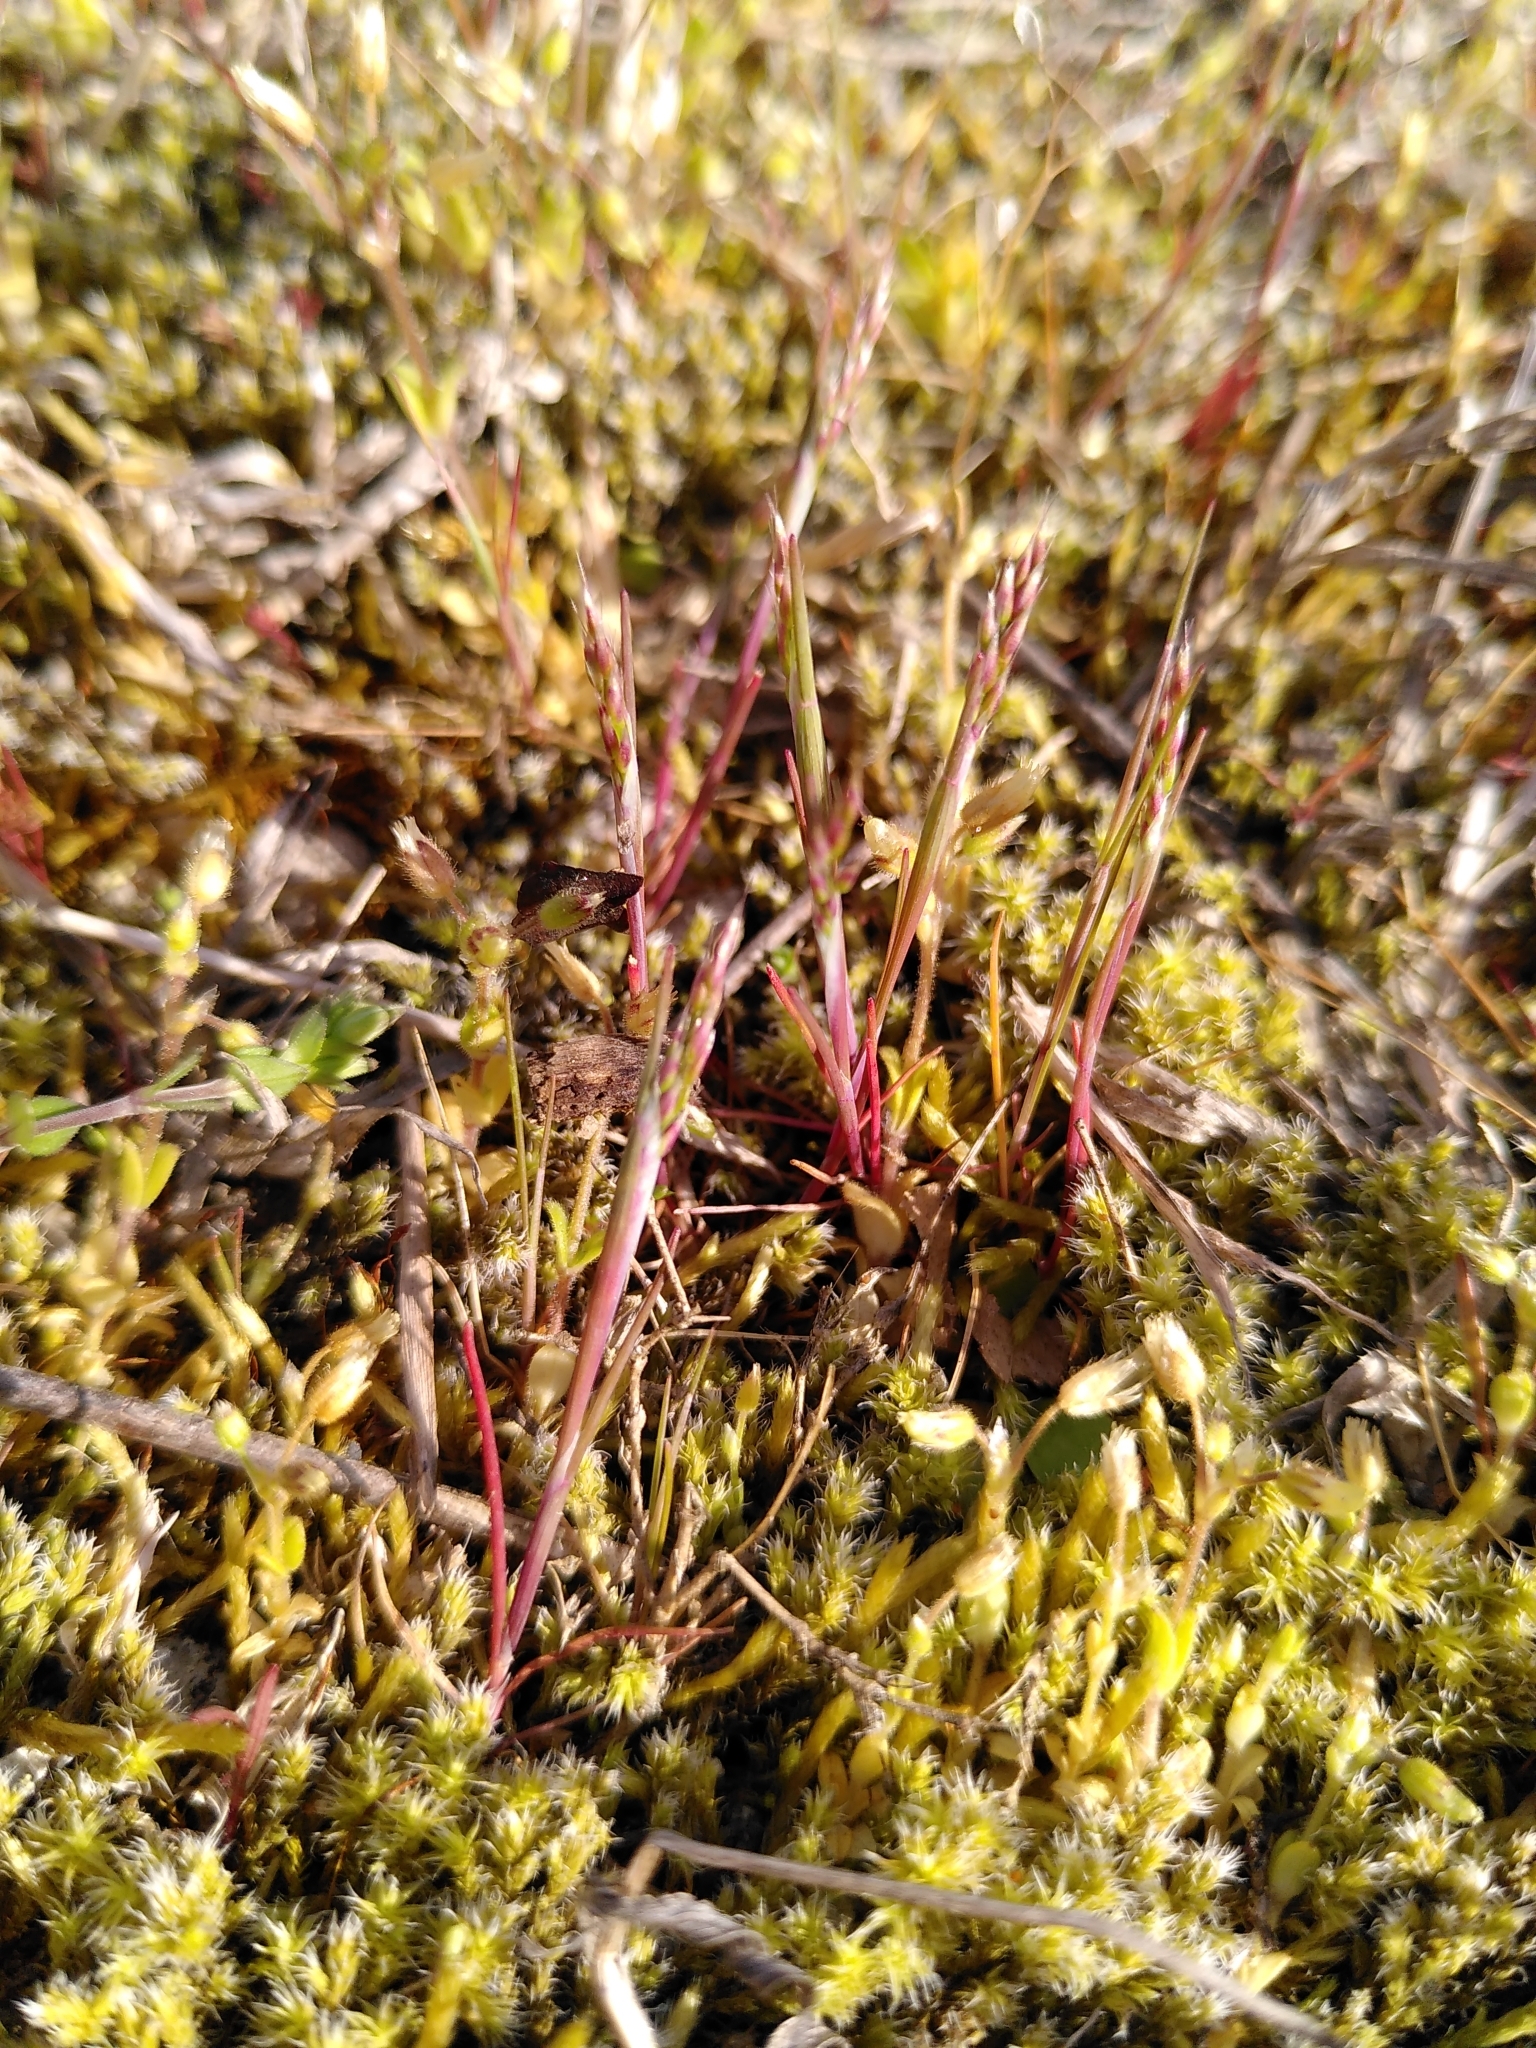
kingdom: Plantae
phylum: Tracheophyta
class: Liliopsida
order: Poales
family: Poaceae
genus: Aira
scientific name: Aira caryophyllea
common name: Silver hairgrass
